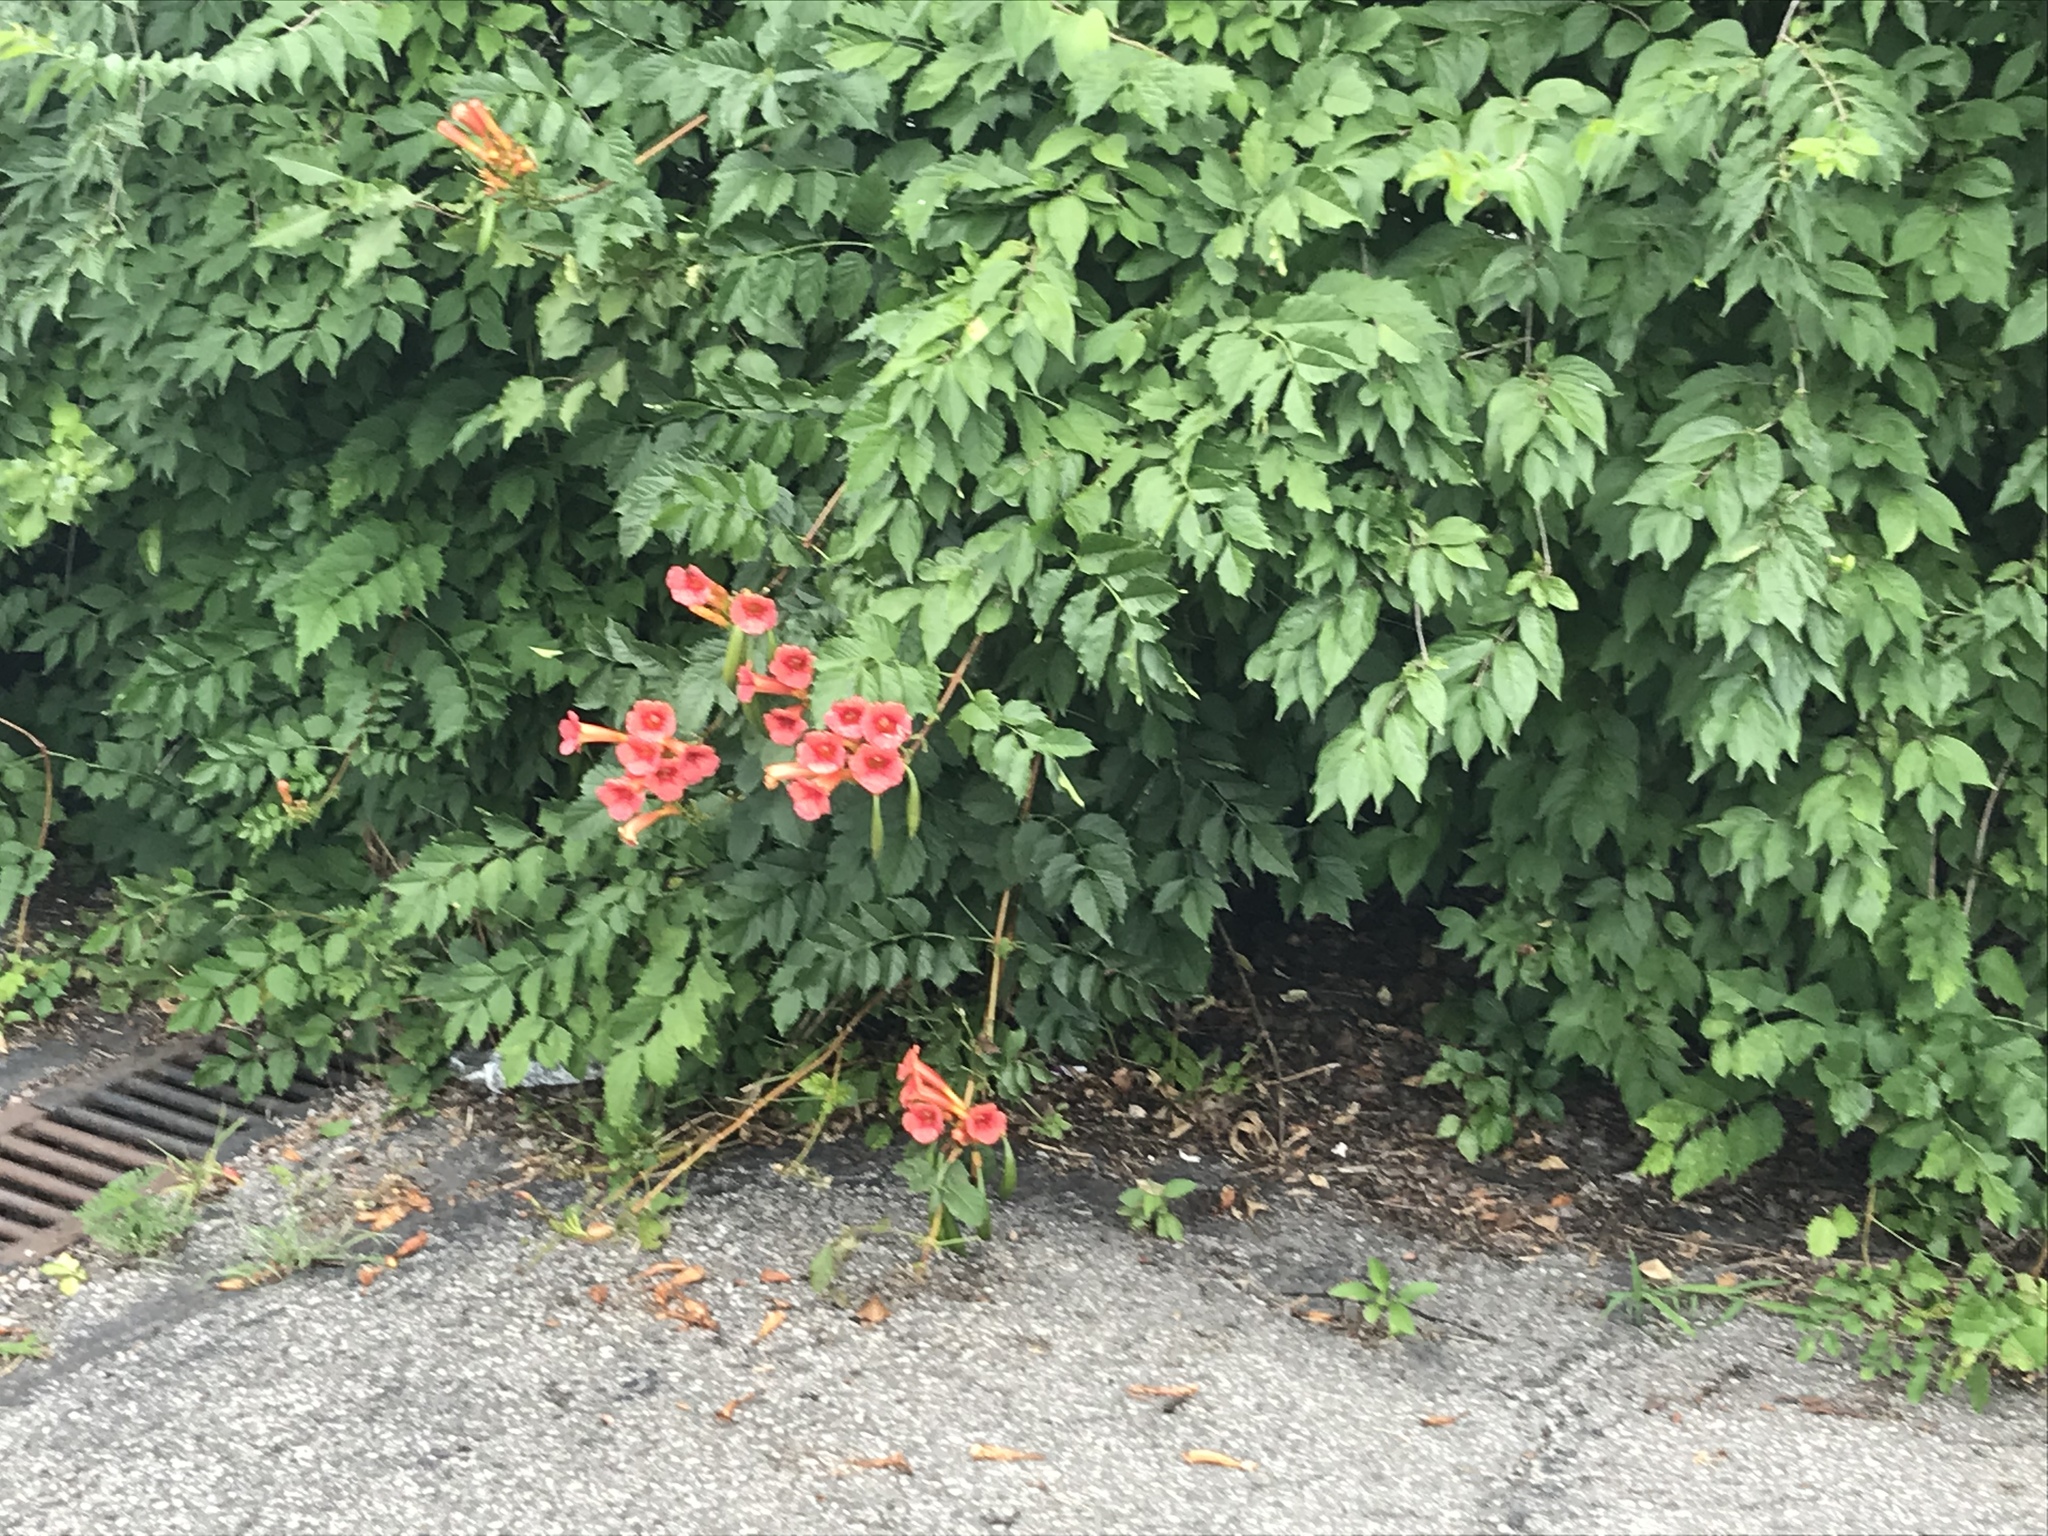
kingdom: Plantae
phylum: Tracheophyta
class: Magnoliopsida
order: Lamiales
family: Bignoniaceae
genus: Campsis
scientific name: Campsis radicans
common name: Trumpet-creeper
